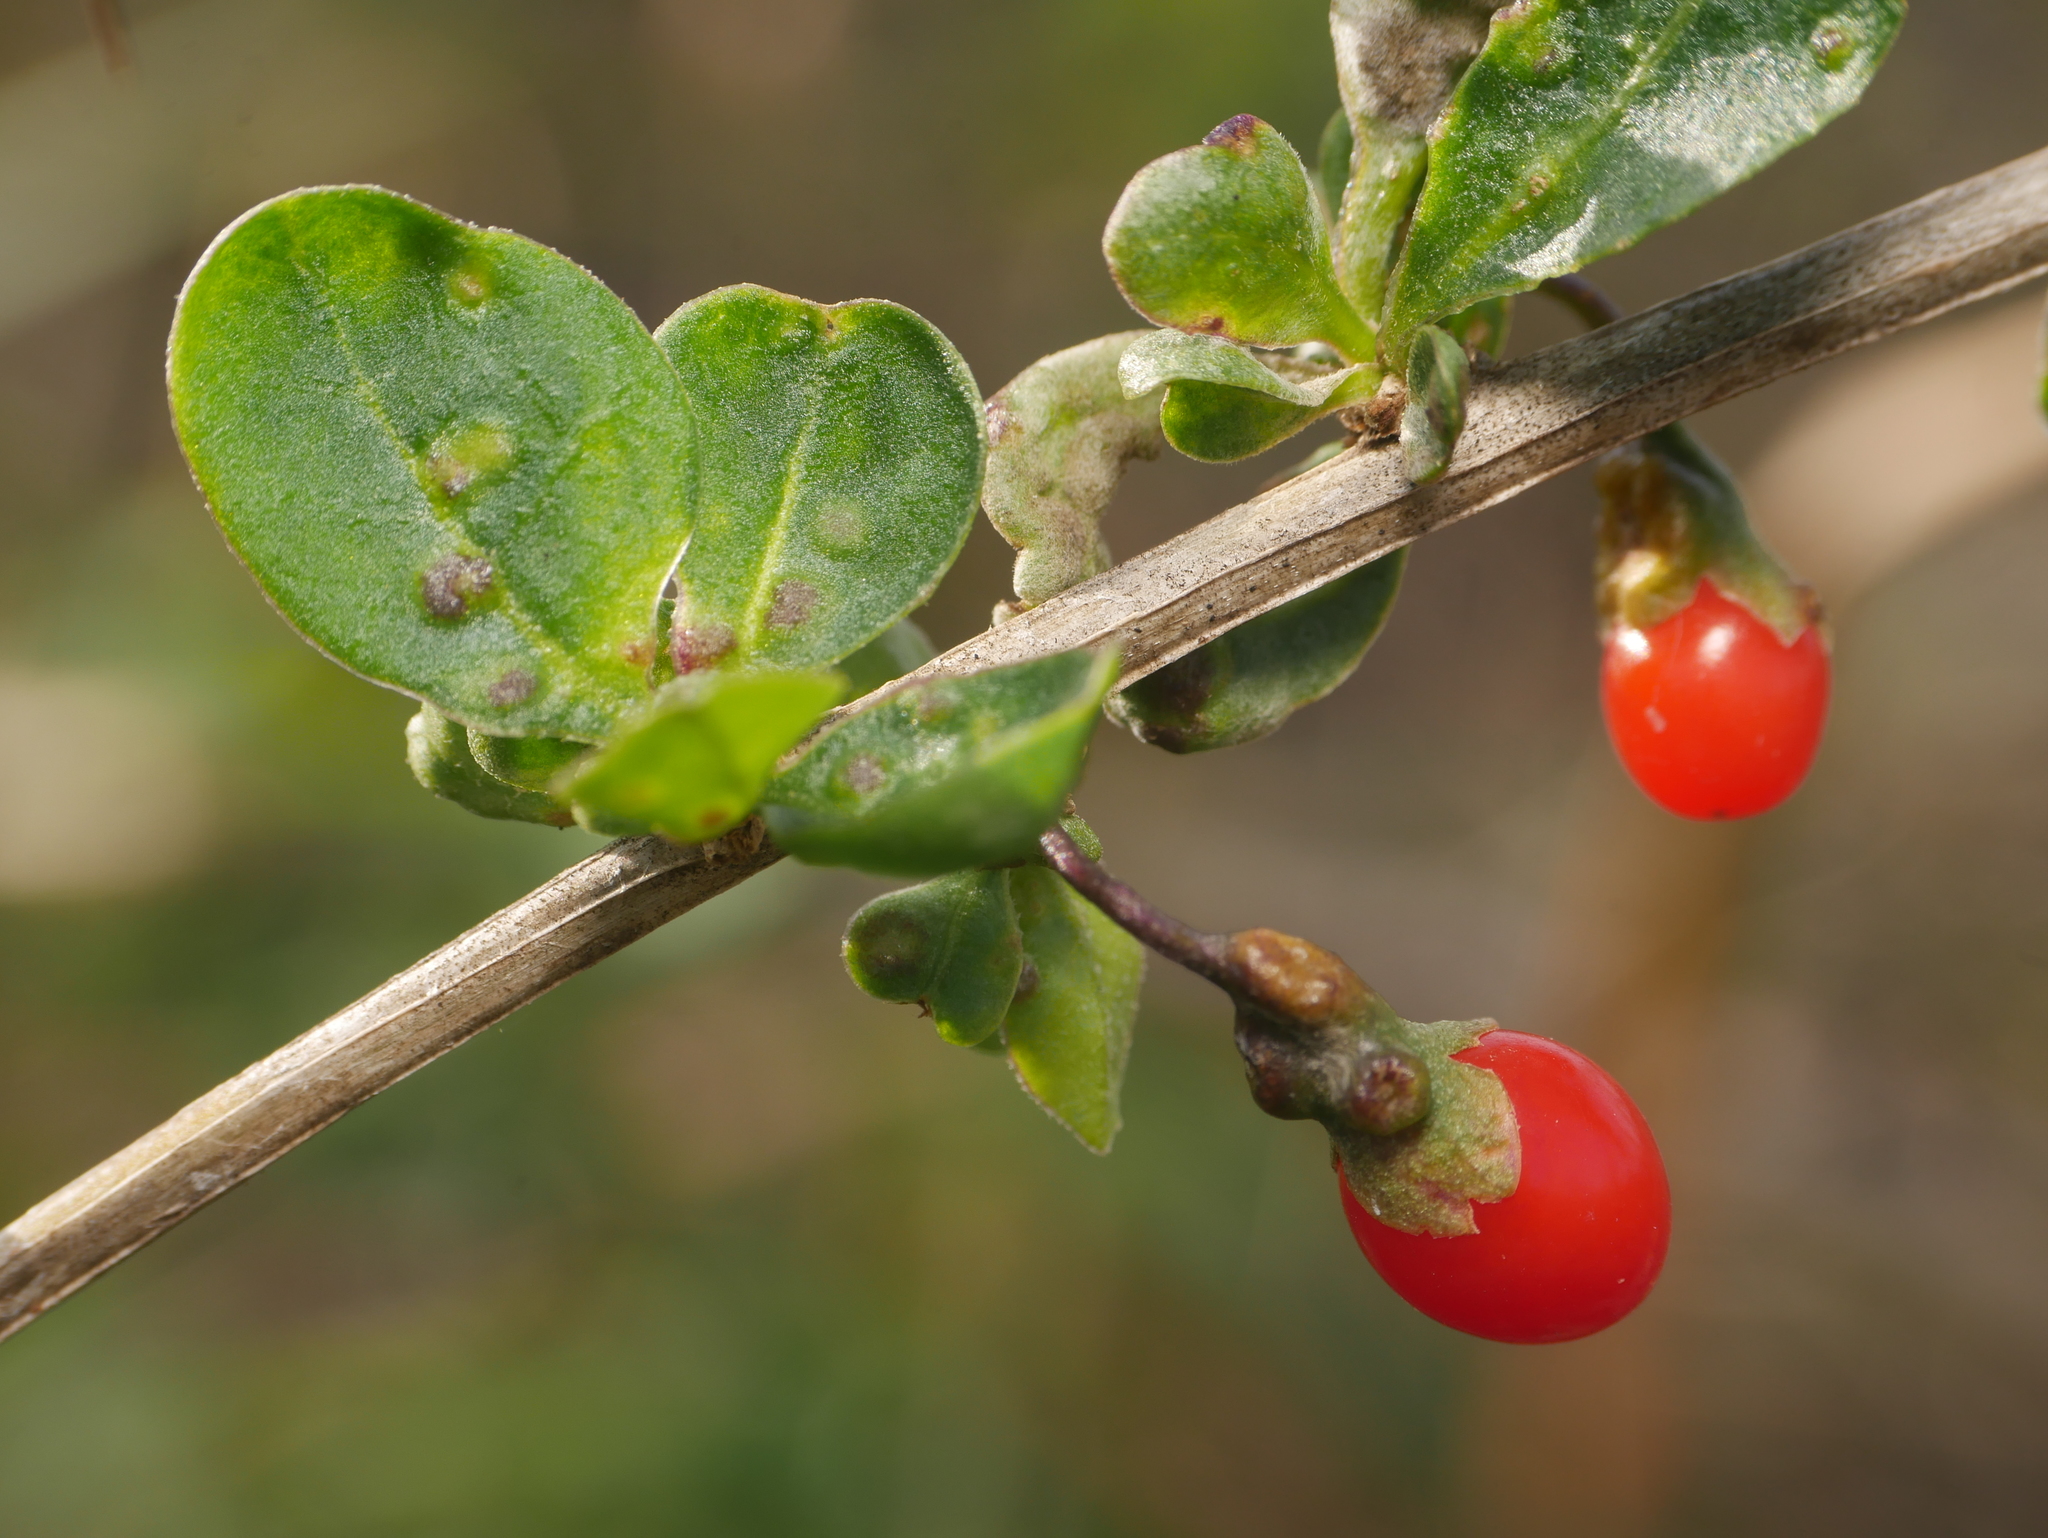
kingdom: Plantae
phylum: Tracheophyta
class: Magnoliopsida
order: Solanales
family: Solanaceae
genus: Lycium
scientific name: Lycium barbarum
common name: Duke of argyll's teaplant
